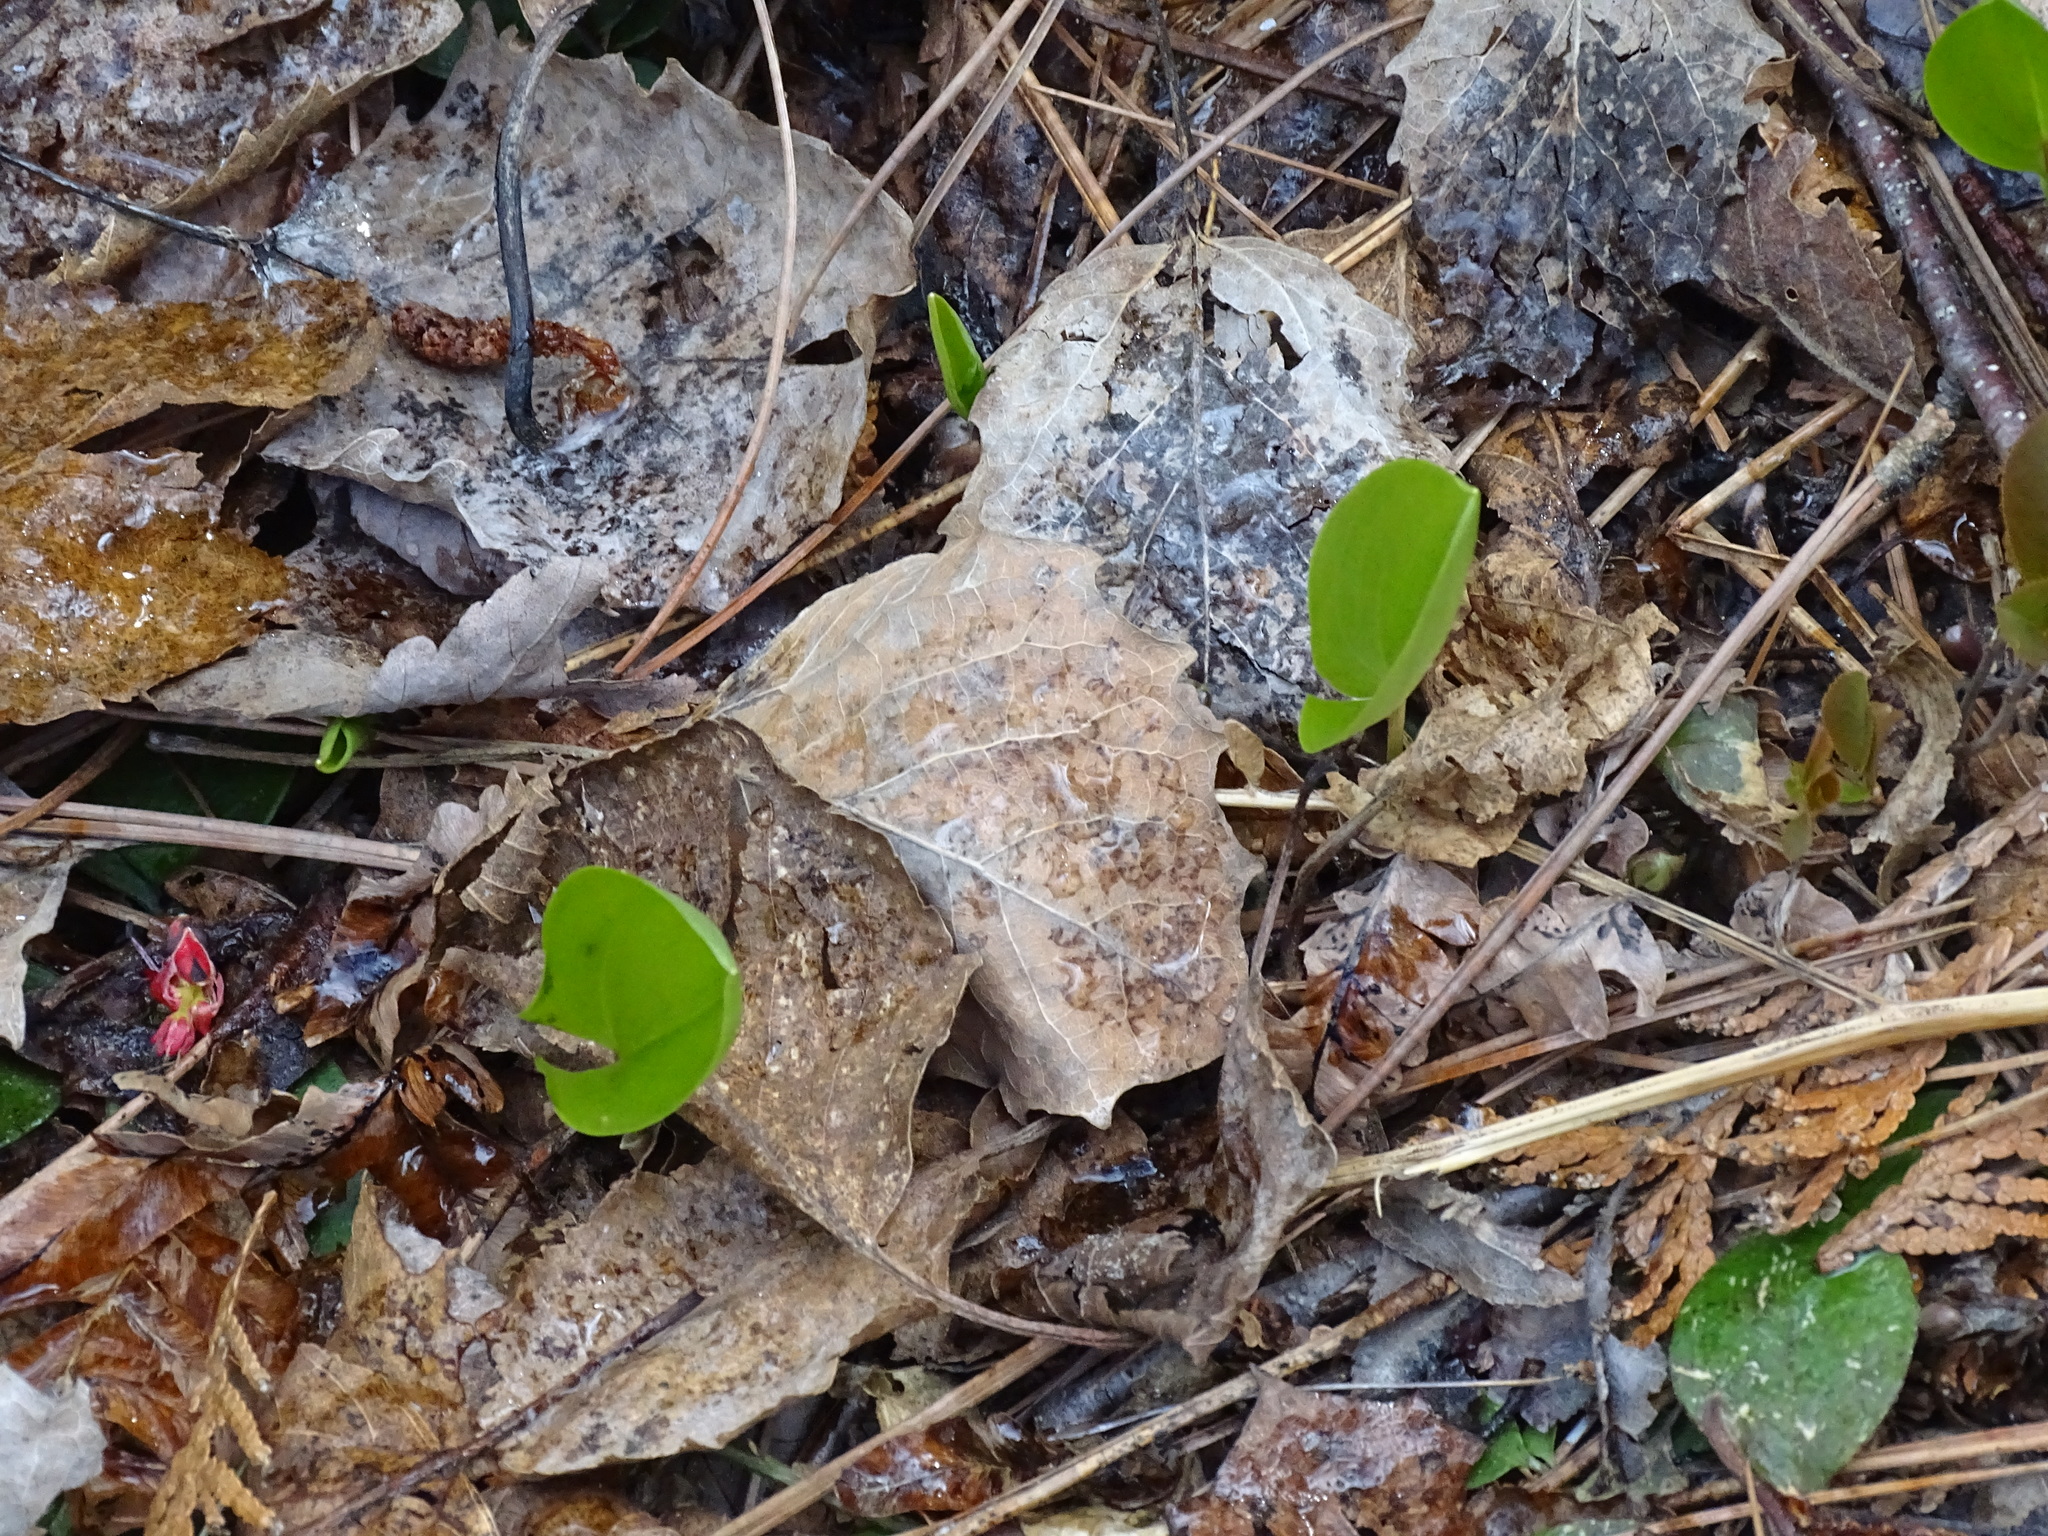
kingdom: Plantae
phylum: Tracheophyta
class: Liliopsida
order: Asparagales
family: Asparagaceae
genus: Maianthemum
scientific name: Maianthemum canadense
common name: False lily-of-the-valley
